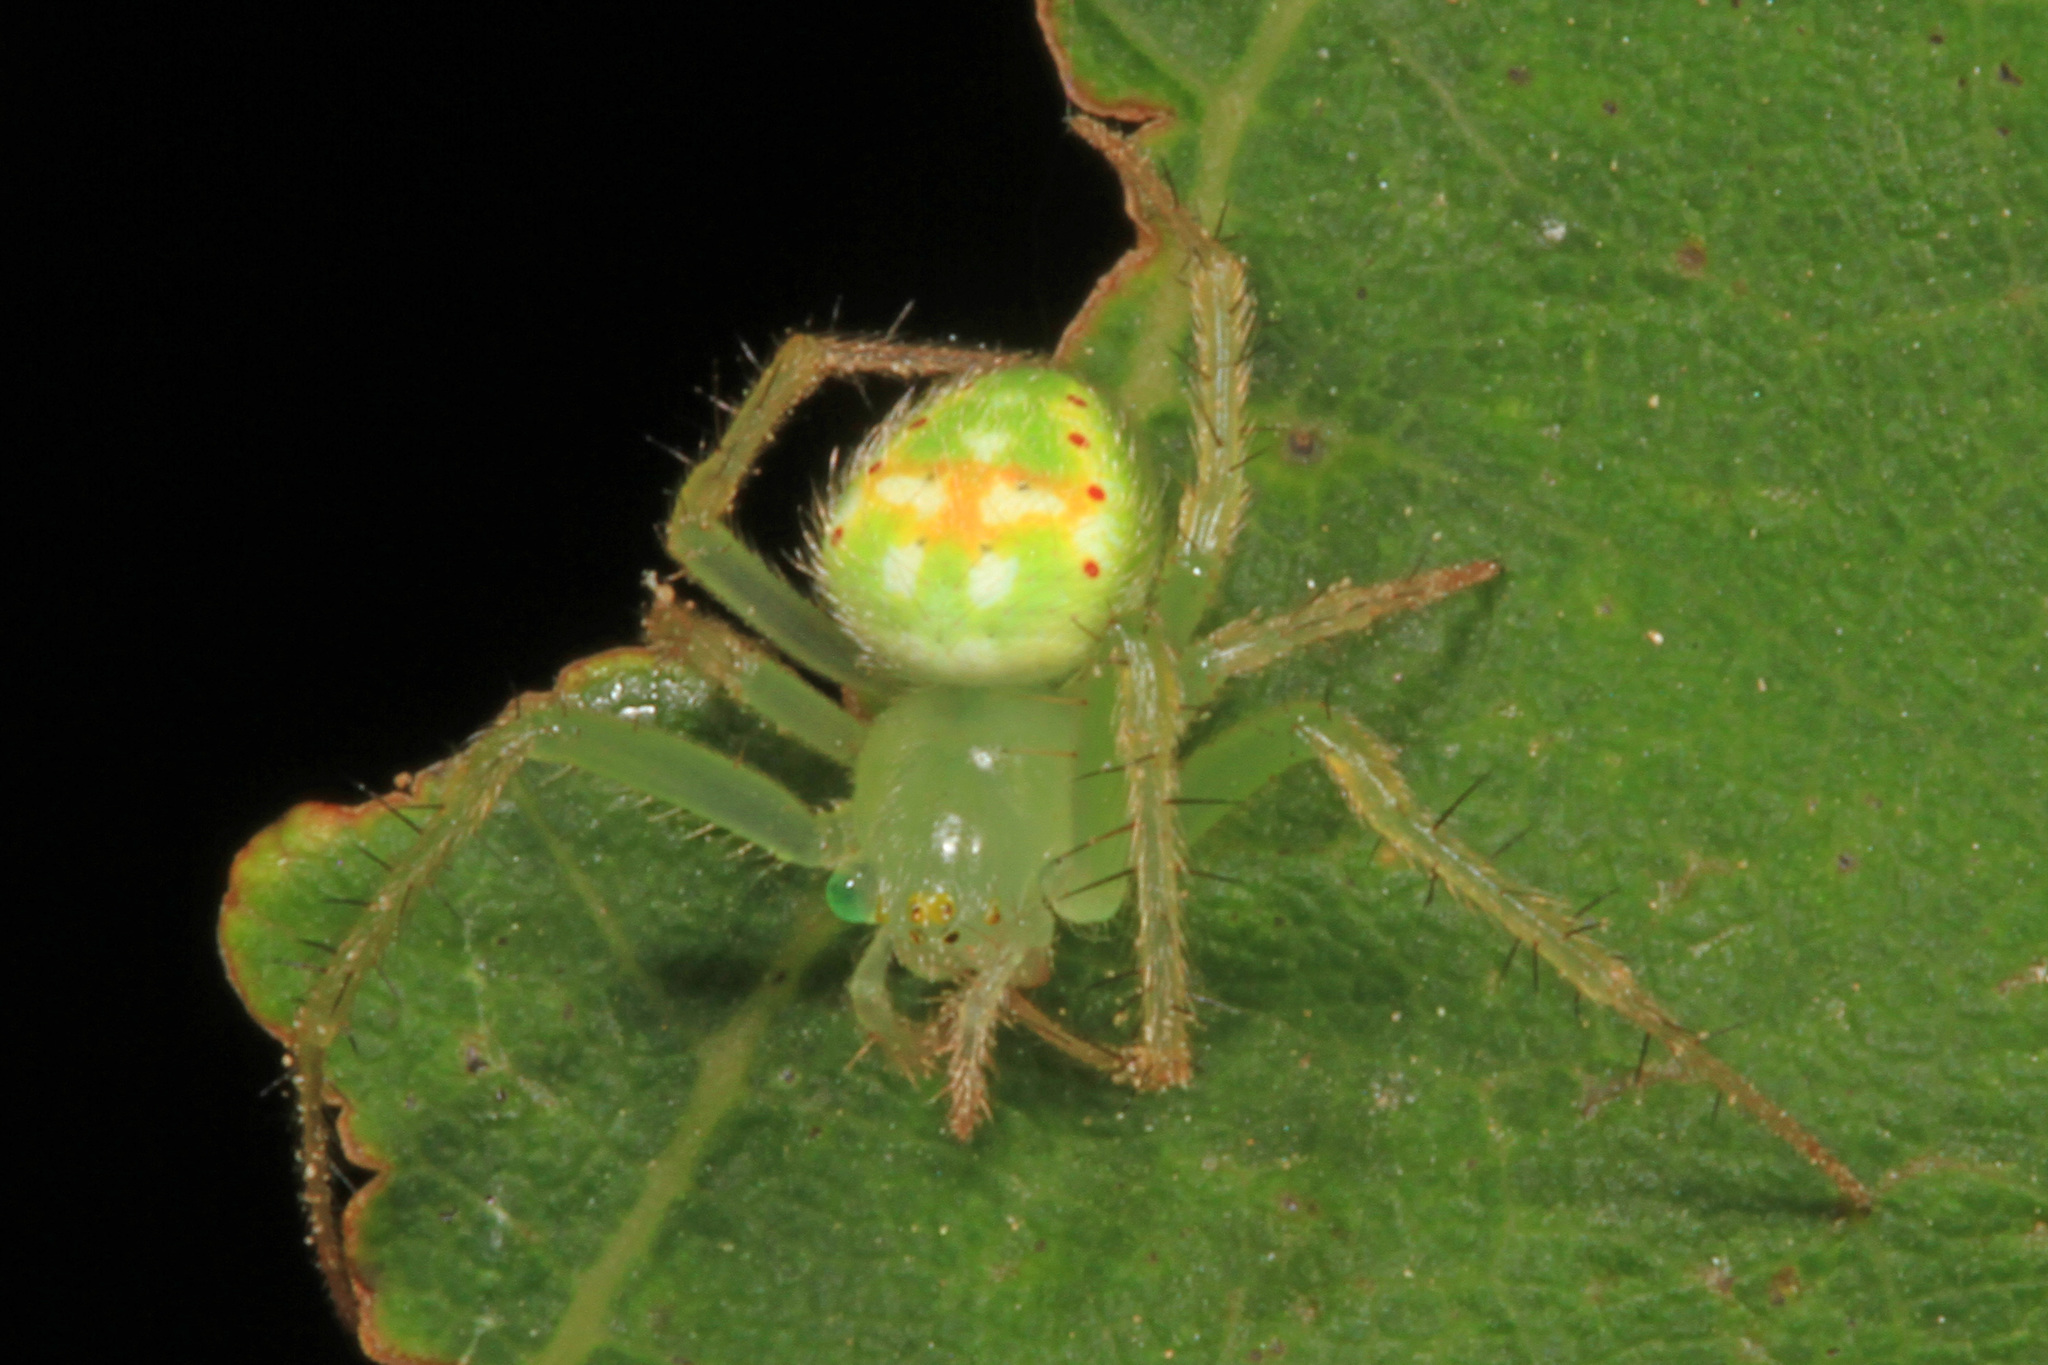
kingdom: Animalia
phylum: Arthropoda
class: Arachnida
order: Araneae
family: Araneidae
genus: Araneus
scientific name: Araneus cingulatus
